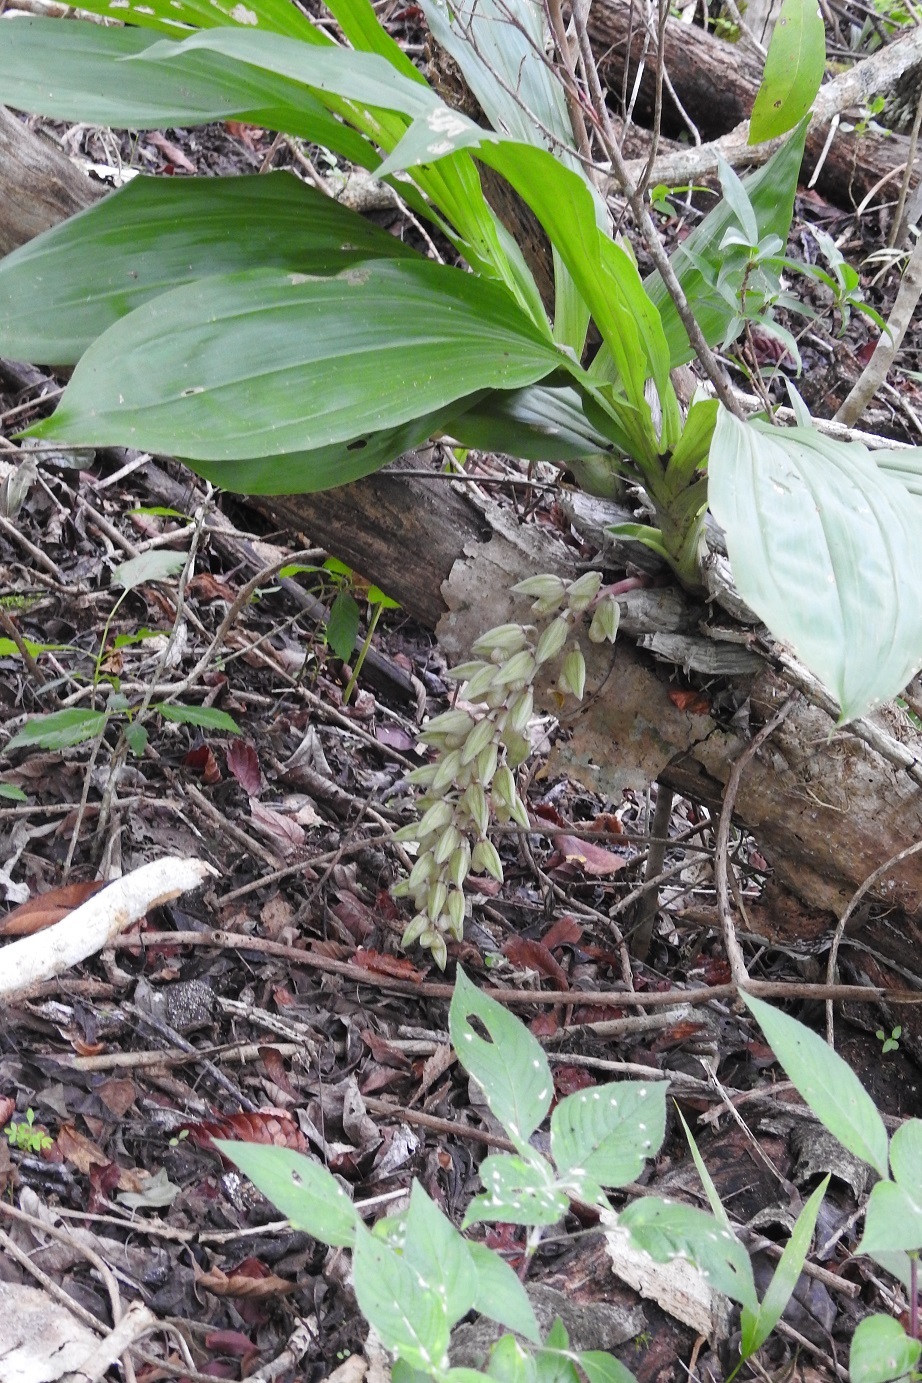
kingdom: Plantae
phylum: Tracheophyta
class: Liliopsida
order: Asparagales
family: Orchidaceae
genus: Clowesia
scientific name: Clowesia russelliana
